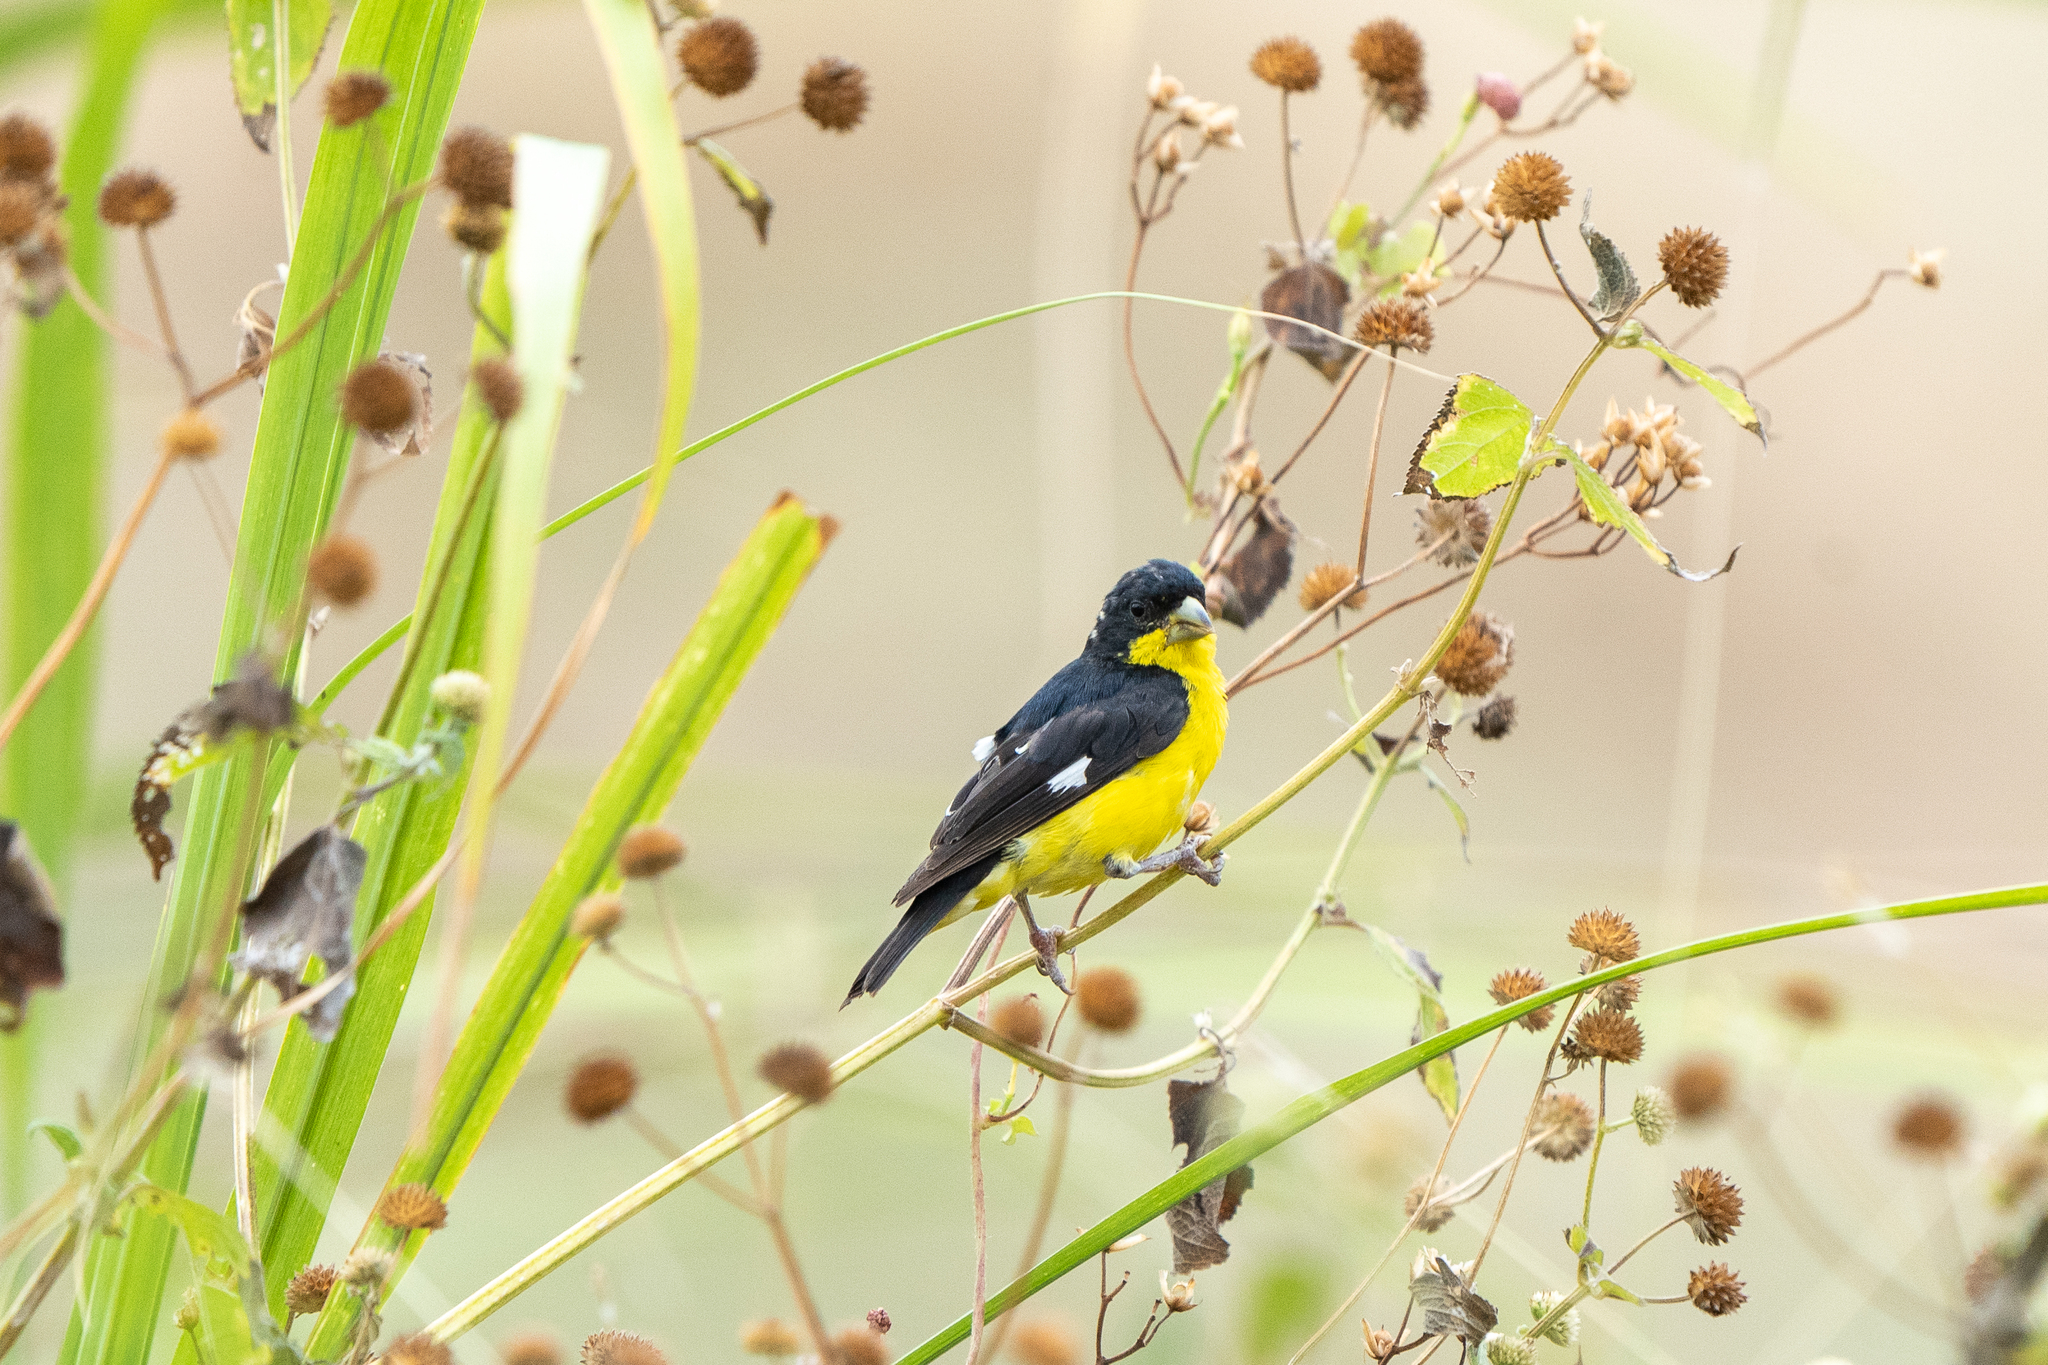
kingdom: Animalia
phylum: Chordata
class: Aves
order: Passeriformes
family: Fringillidae
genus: Spinus
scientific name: Spinus psaltria
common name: Lesser goldfinch
